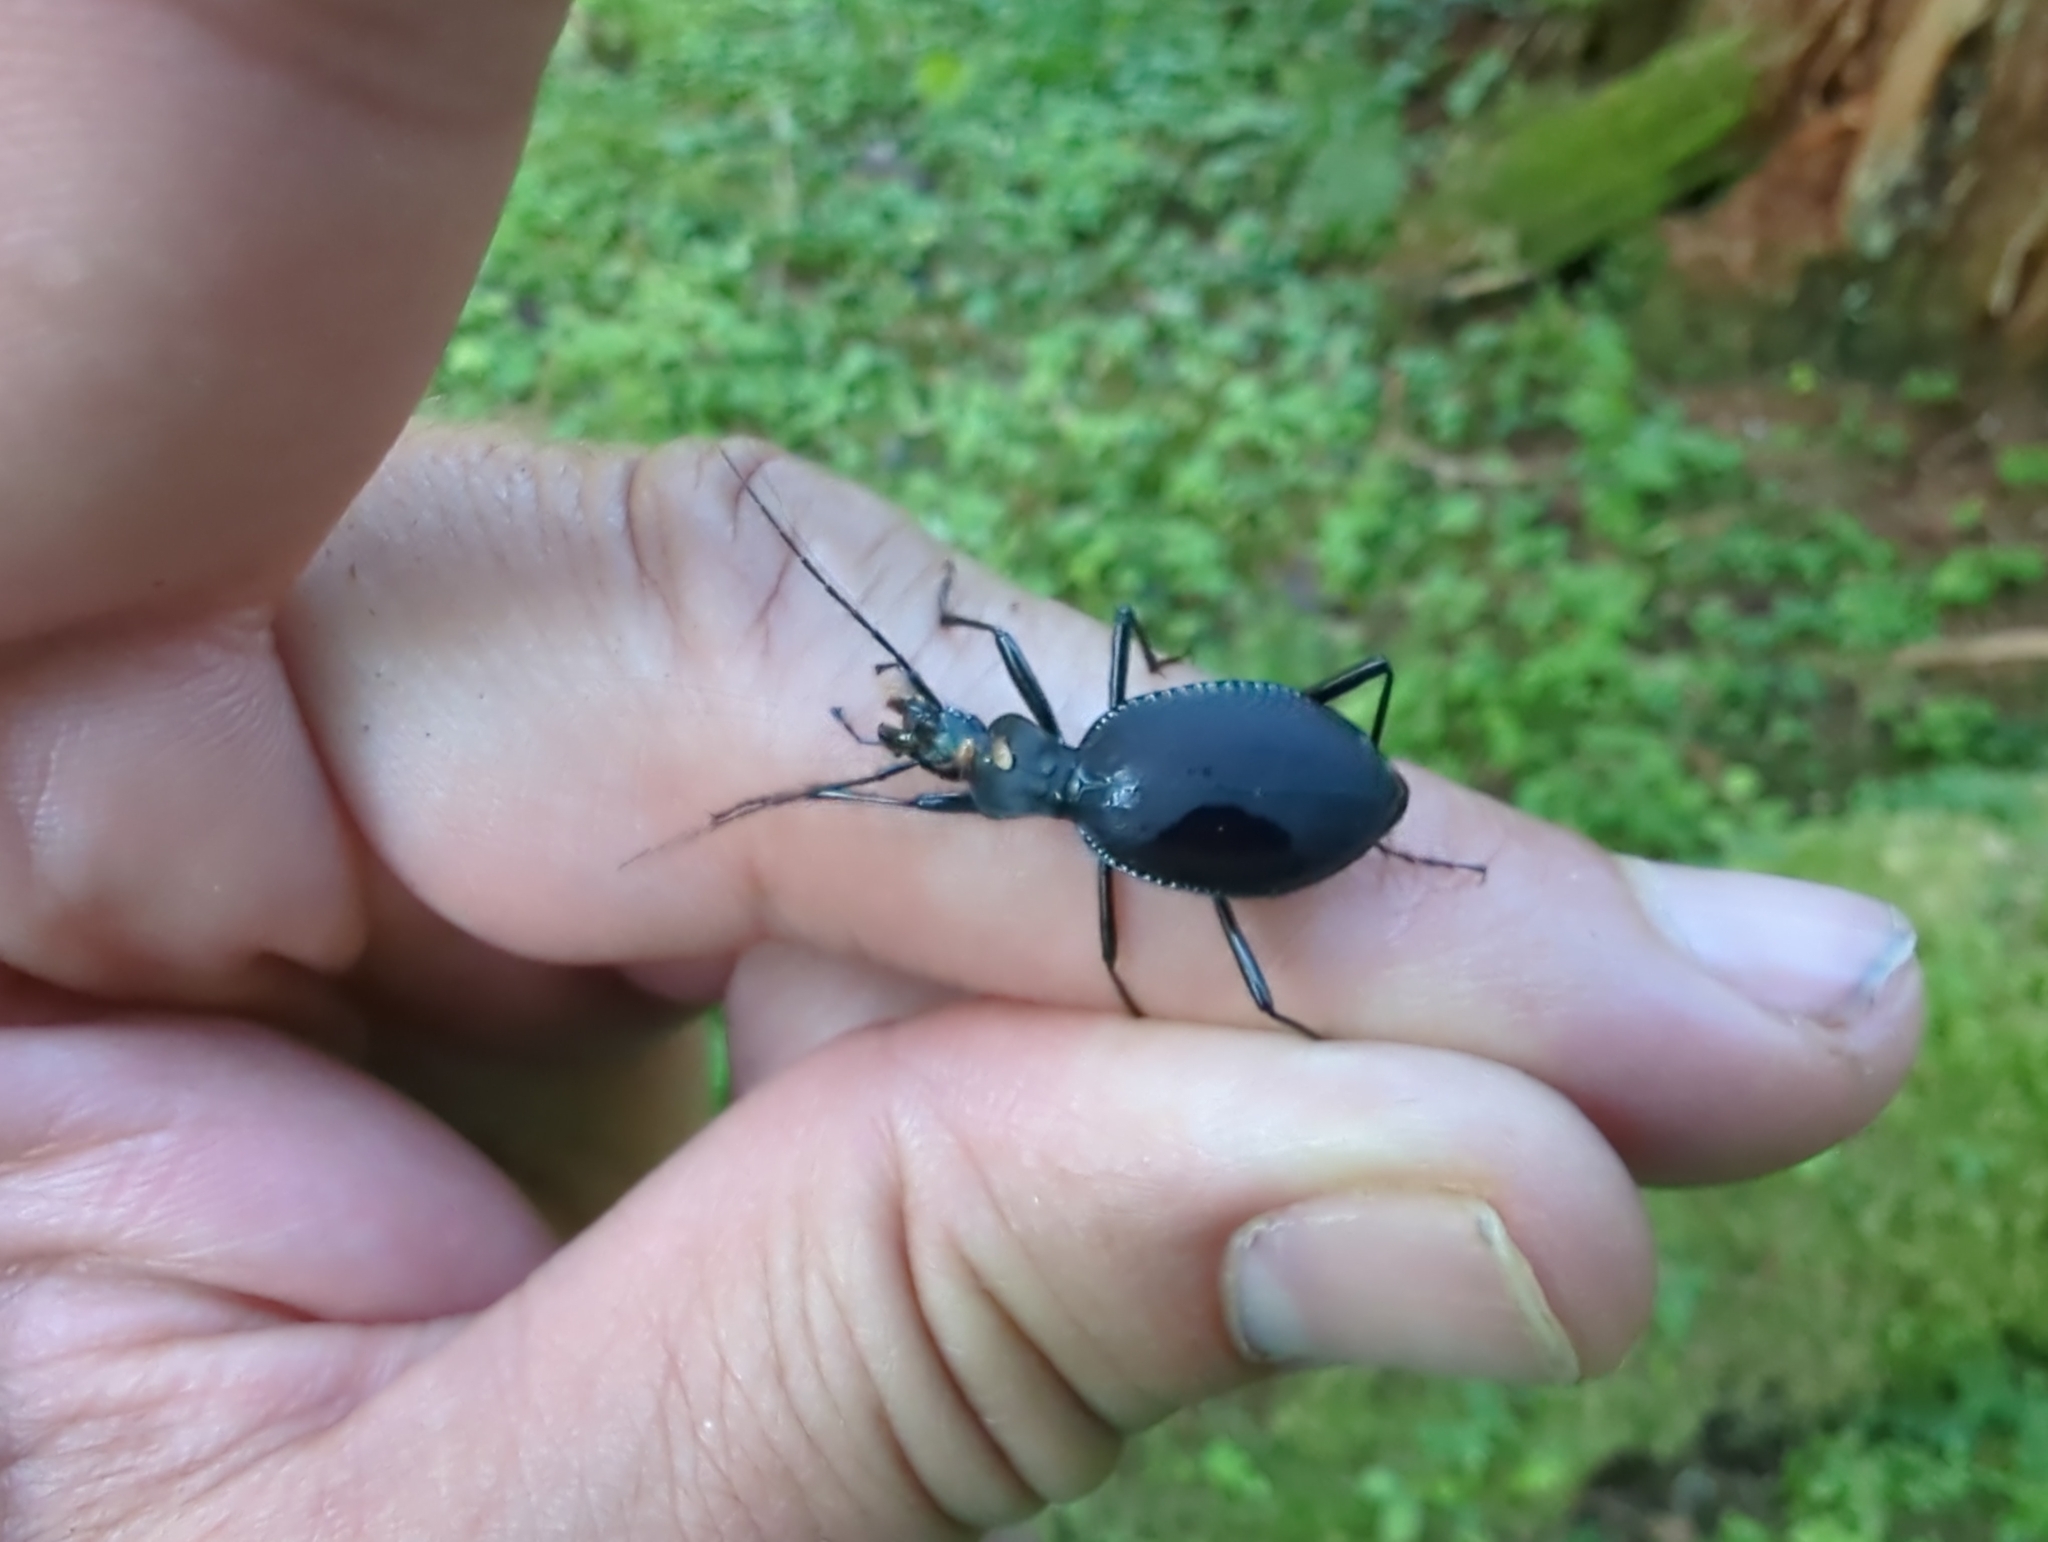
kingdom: Animalia
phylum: Arthropoda
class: Insecta
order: Coleoptera
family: Carabidae
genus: Scaphinotus
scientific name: Scaphinotus angusticollis
